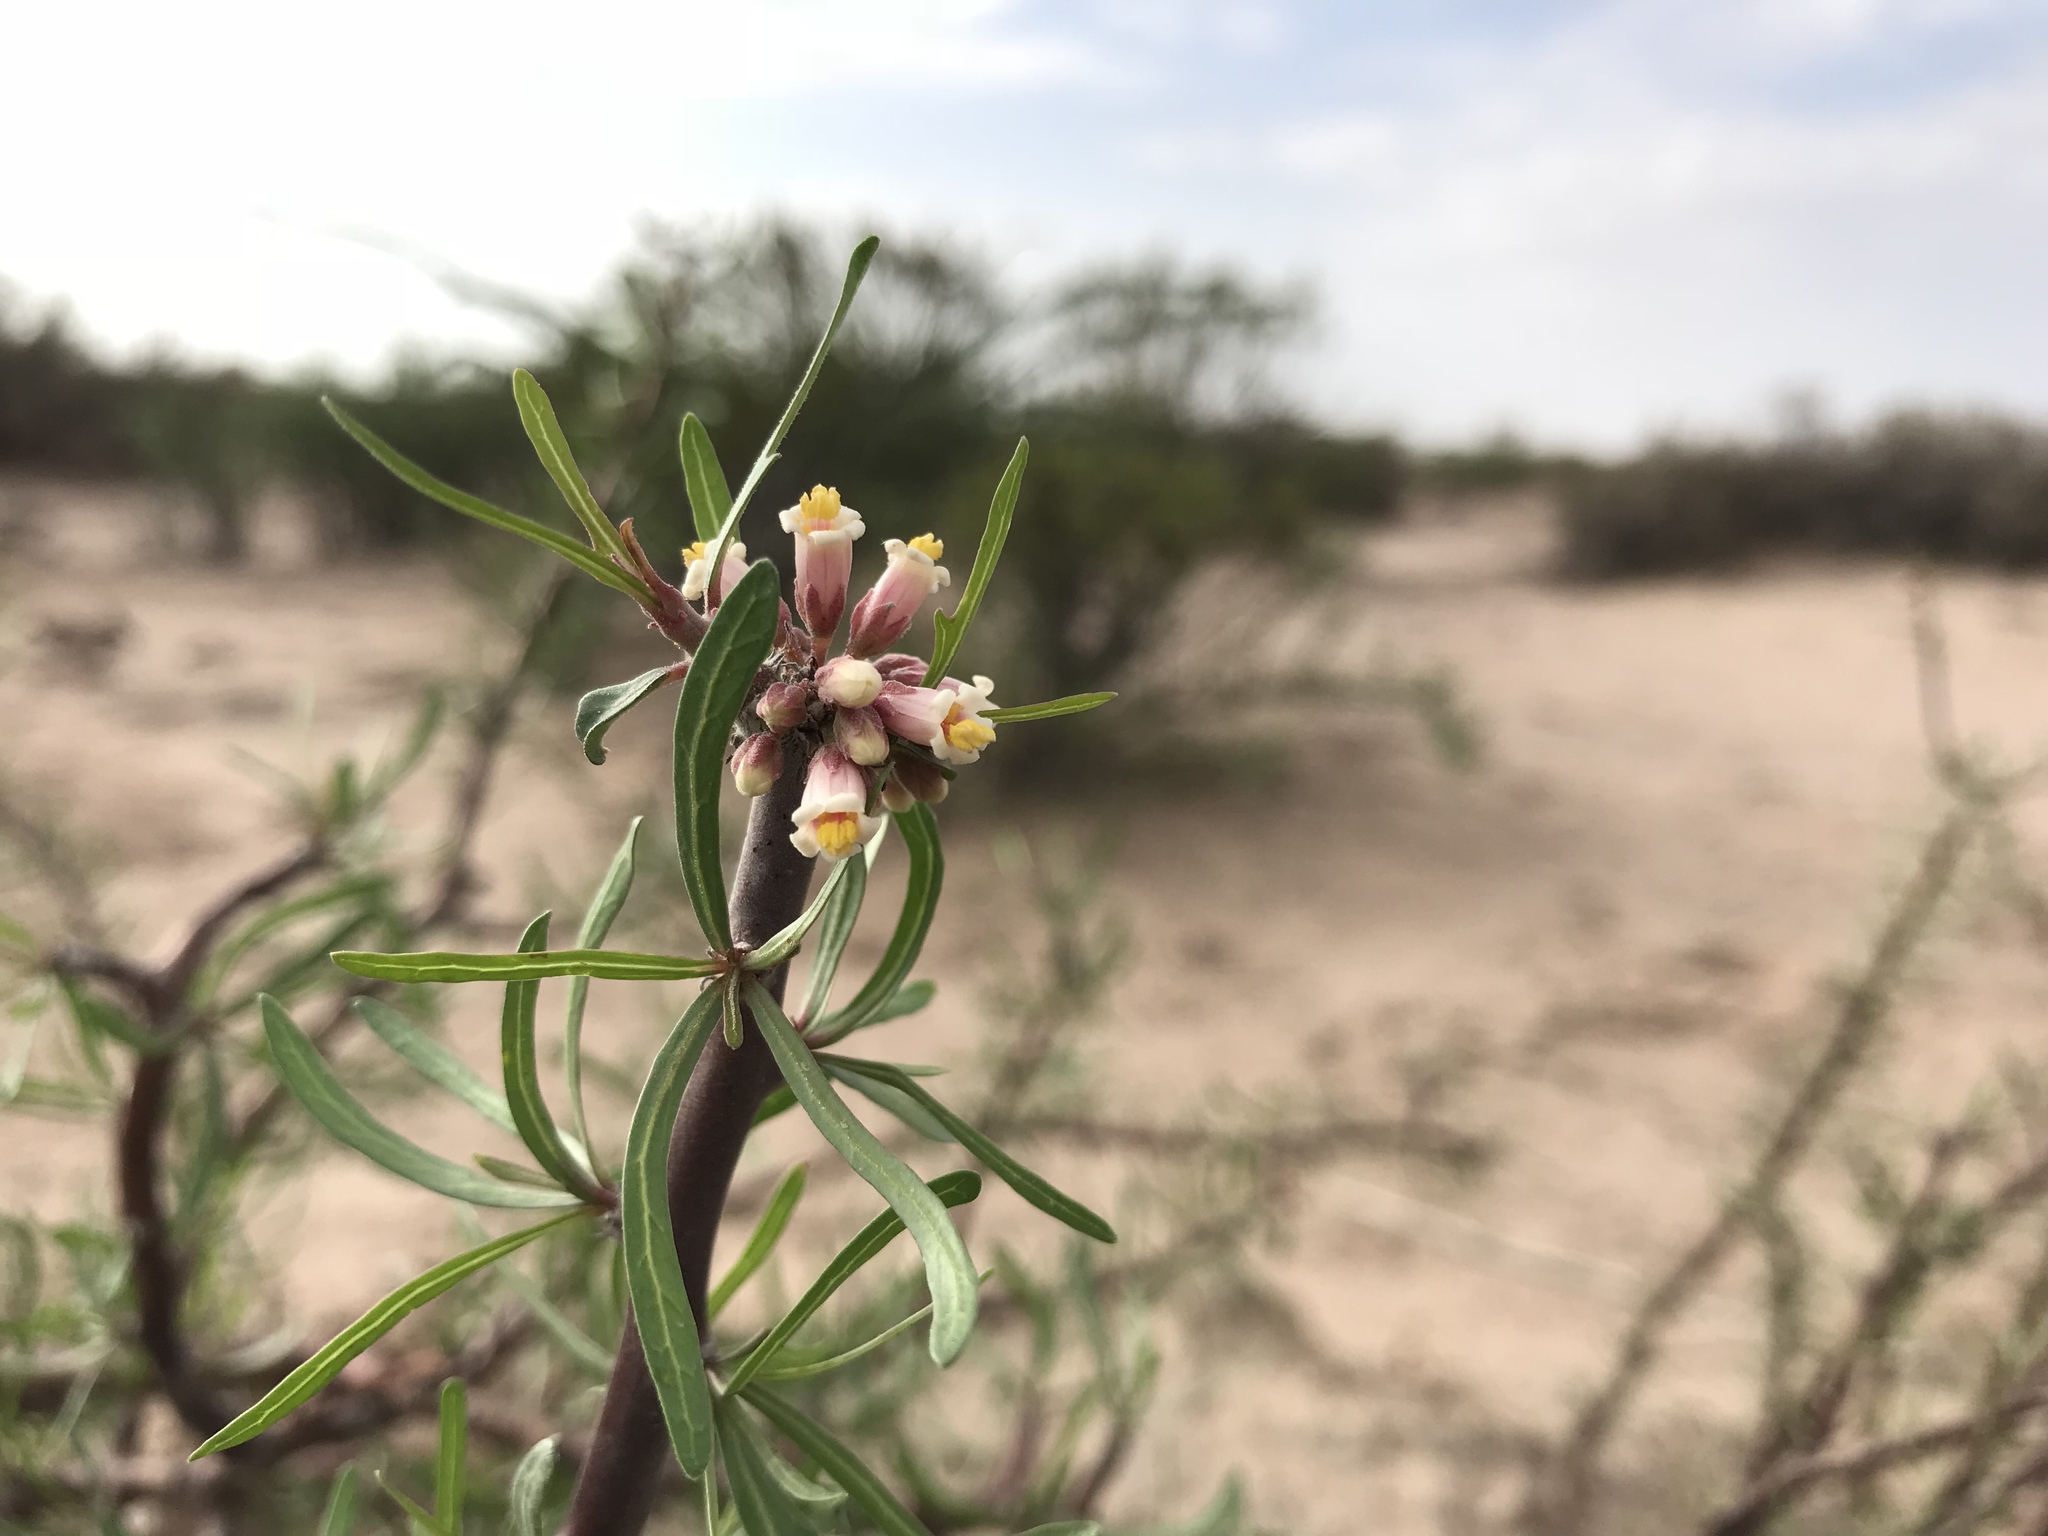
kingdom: Plantae
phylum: Tracheophyta
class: Magnoliopsida
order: Malpighiales
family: Euphorbiaceae
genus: Jatropha
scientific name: Jatropha dioica
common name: Leatherstem
